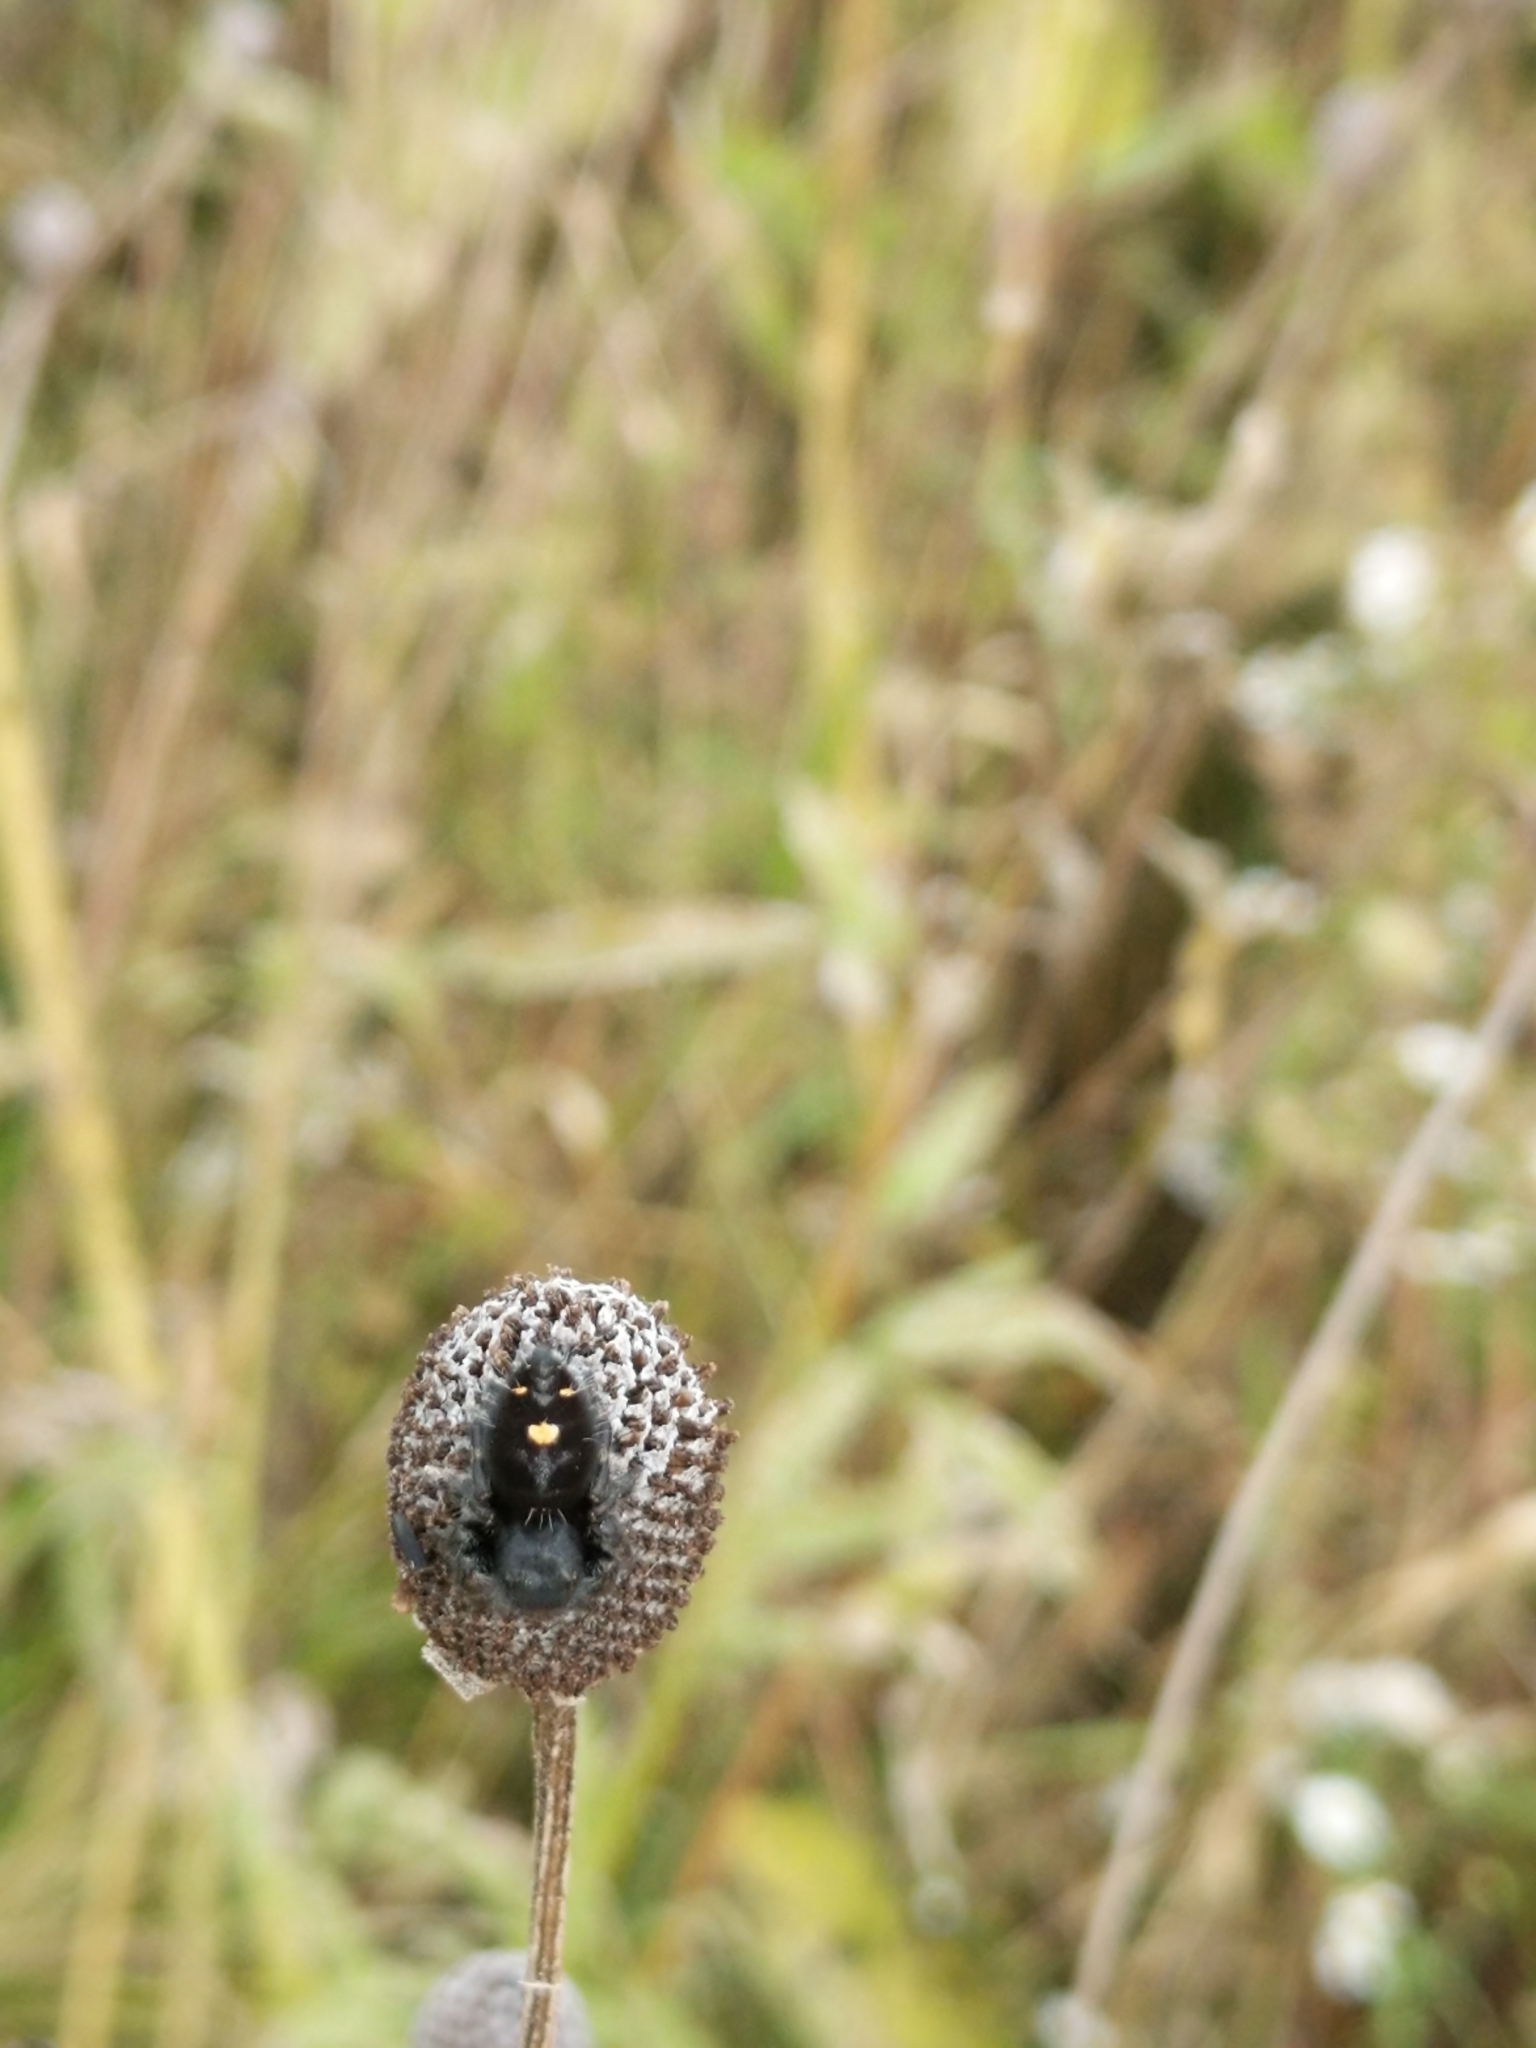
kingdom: Animalia
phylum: Arthropoda
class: Arachnida
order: Araneae
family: Salticidae
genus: Phidippus
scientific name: Phidippus audax
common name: Bold jumper
